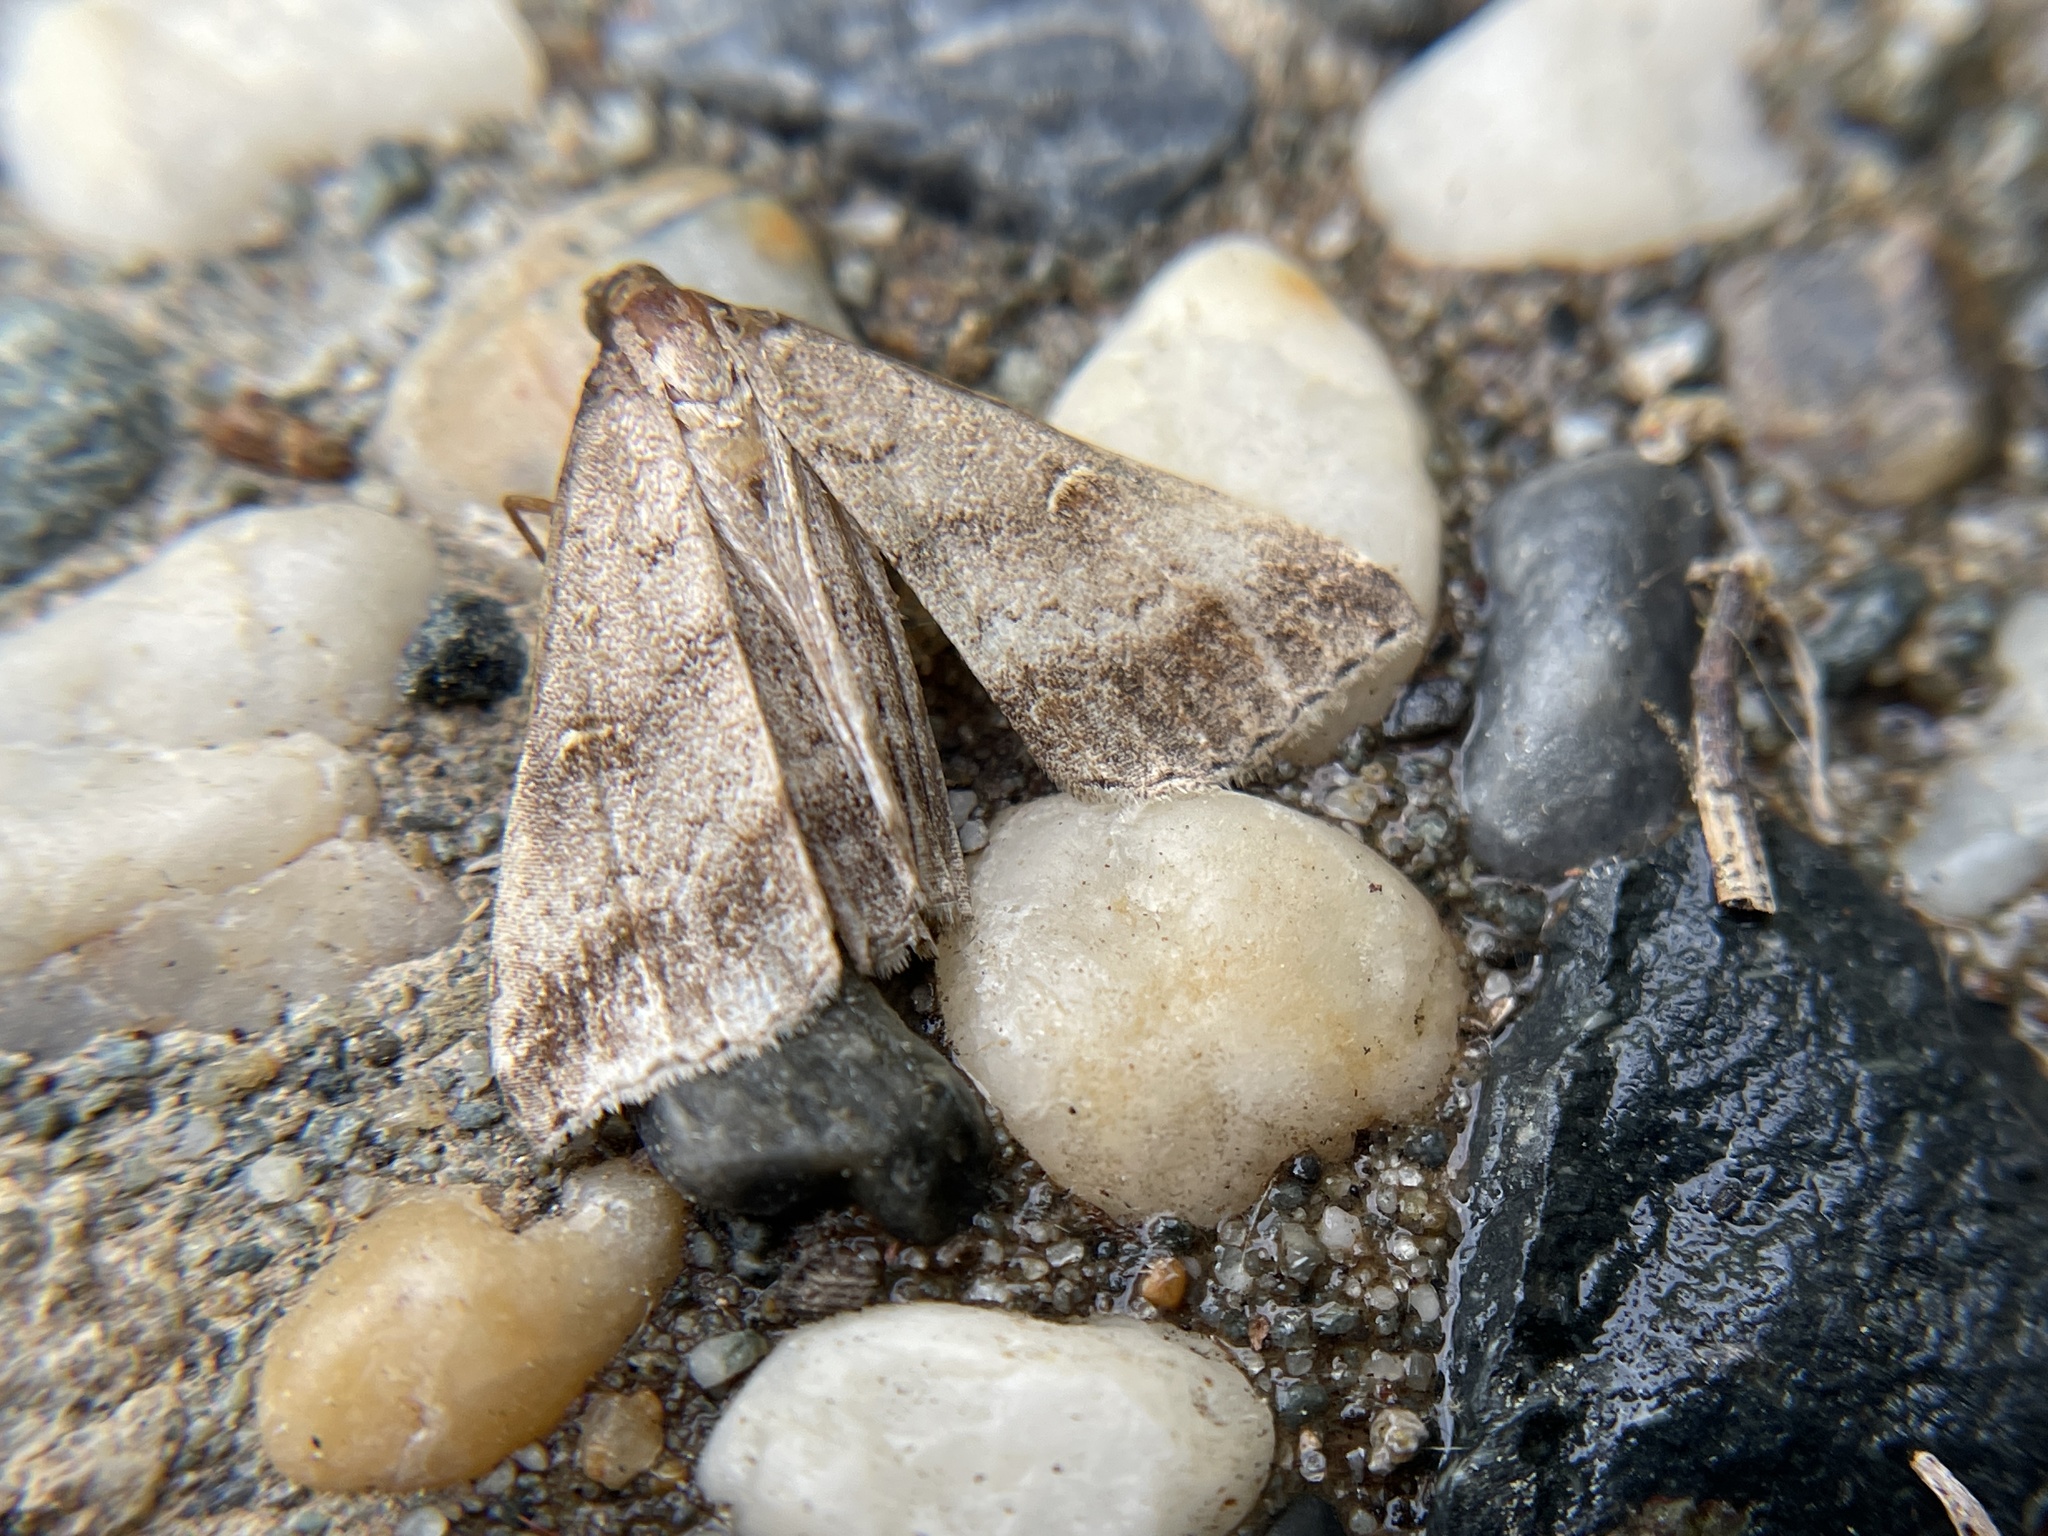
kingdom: Animalia
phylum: Arthropoda
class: Insecta
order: Lepidoptera
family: Erebidae
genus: Tetanolita
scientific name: Tetanolita palligera
